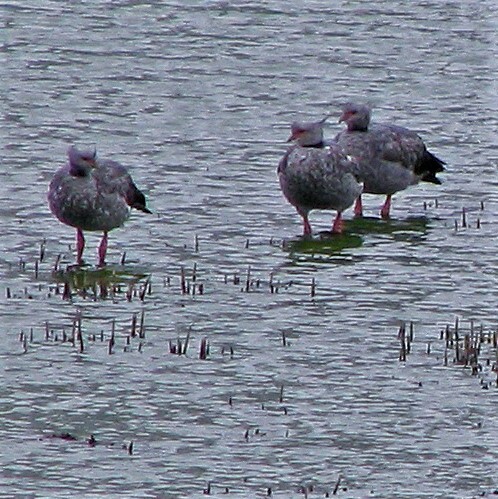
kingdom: Animalia
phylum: Chordata
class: Aves
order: Anseriformes
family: Anhimidae
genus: Chauna
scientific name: Chauna torquata
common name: Southern screamer
